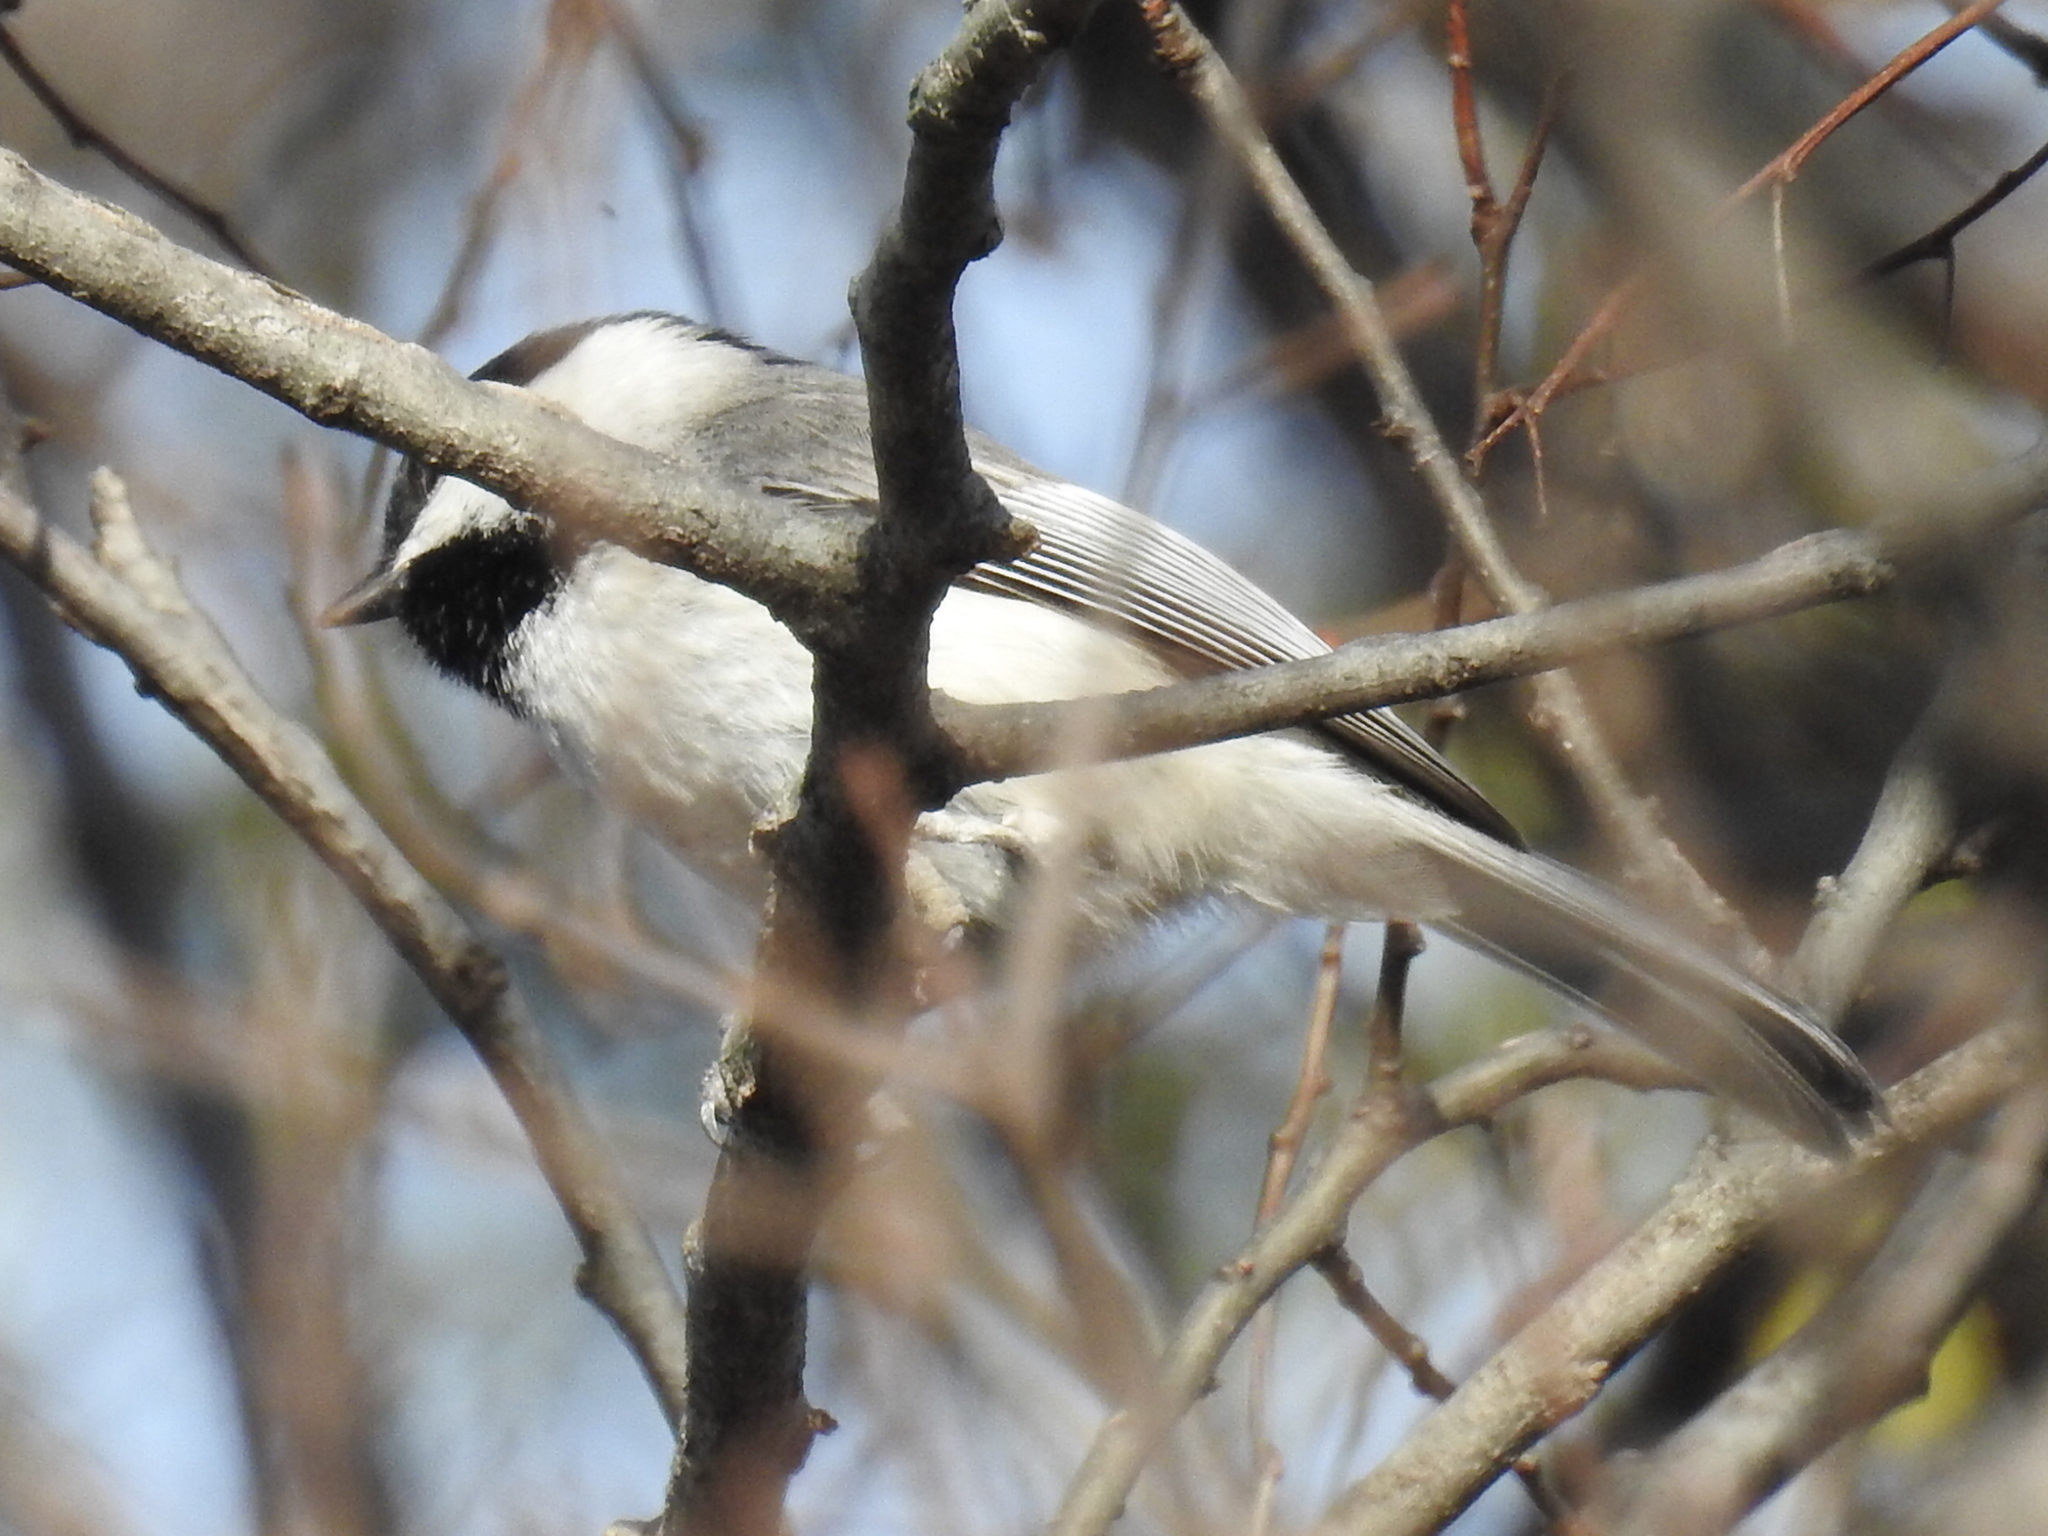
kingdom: Animalia
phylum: Chordata
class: Aves
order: Passeriformes
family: Paridae
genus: Poecile
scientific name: Poecile carolinensis
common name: Carolina chickadee
